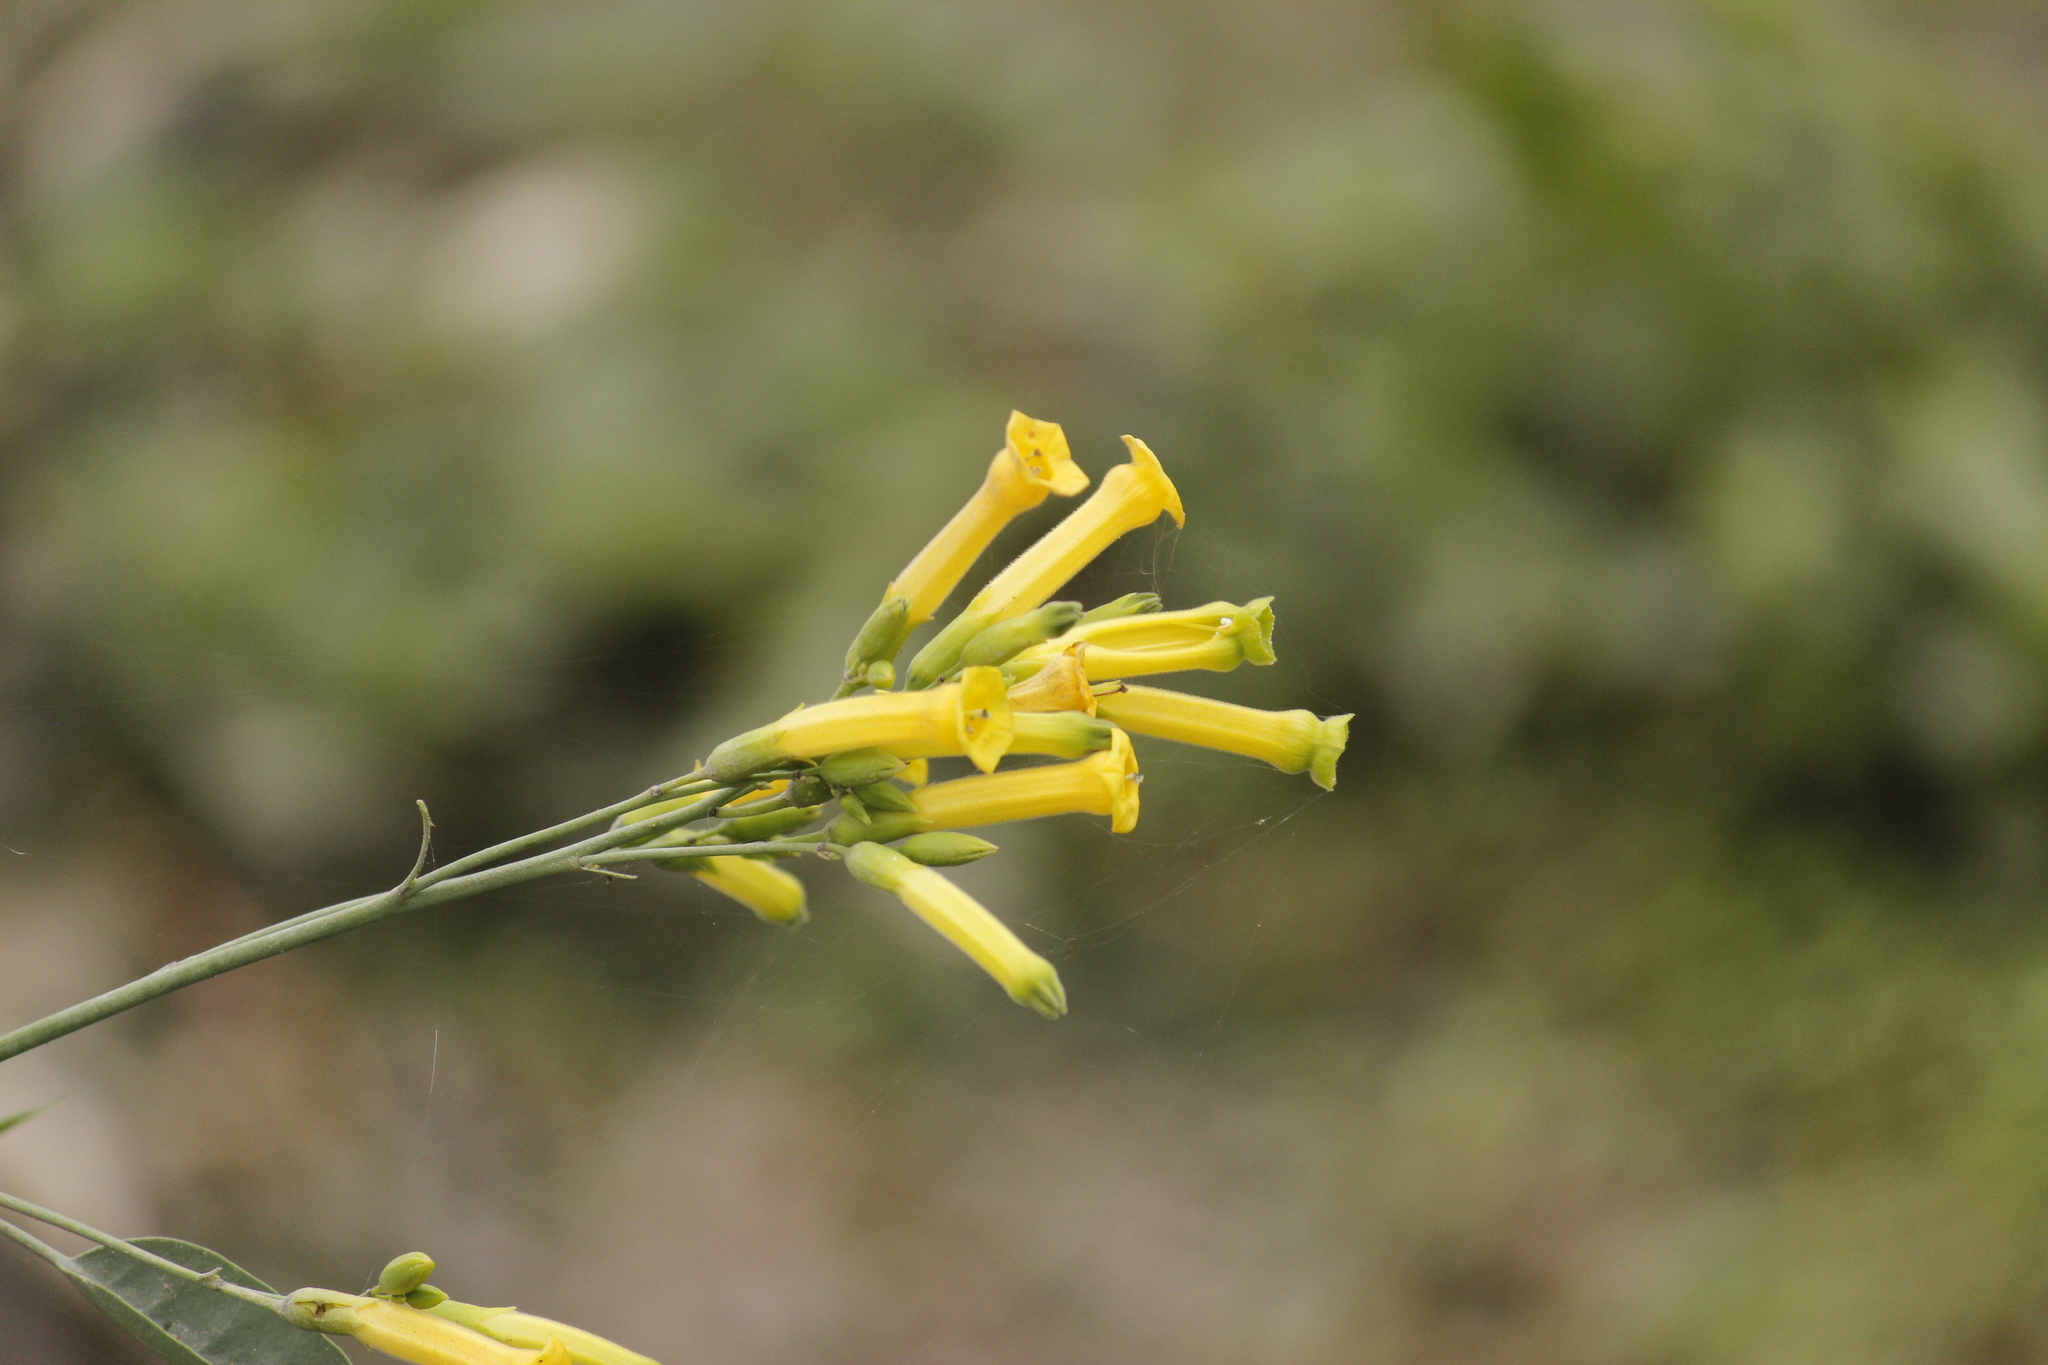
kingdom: Plantae
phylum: Tracheophyta
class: Magnoliopsida
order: Solanales
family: Solanaceae
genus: Nicotiana
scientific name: Nicotiana glauca
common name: Tree tobacco
